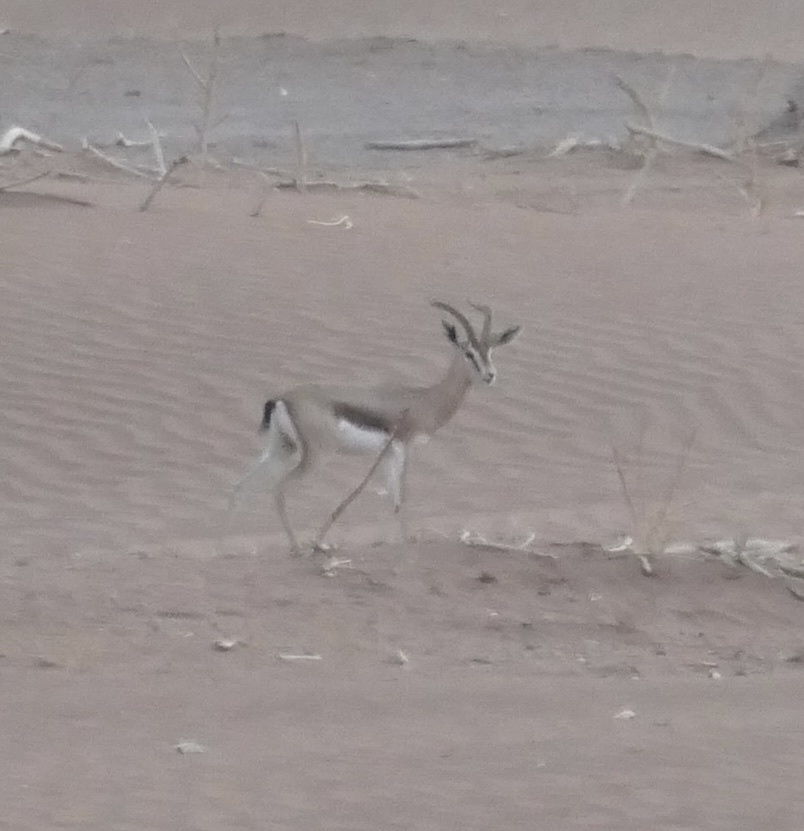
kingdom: Animalia
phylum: Chordata
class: Mammalia
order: Artiodactyla
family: Bovidae
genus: Gazella
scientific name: Gazella dorcas
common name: Dorcas gazelle
